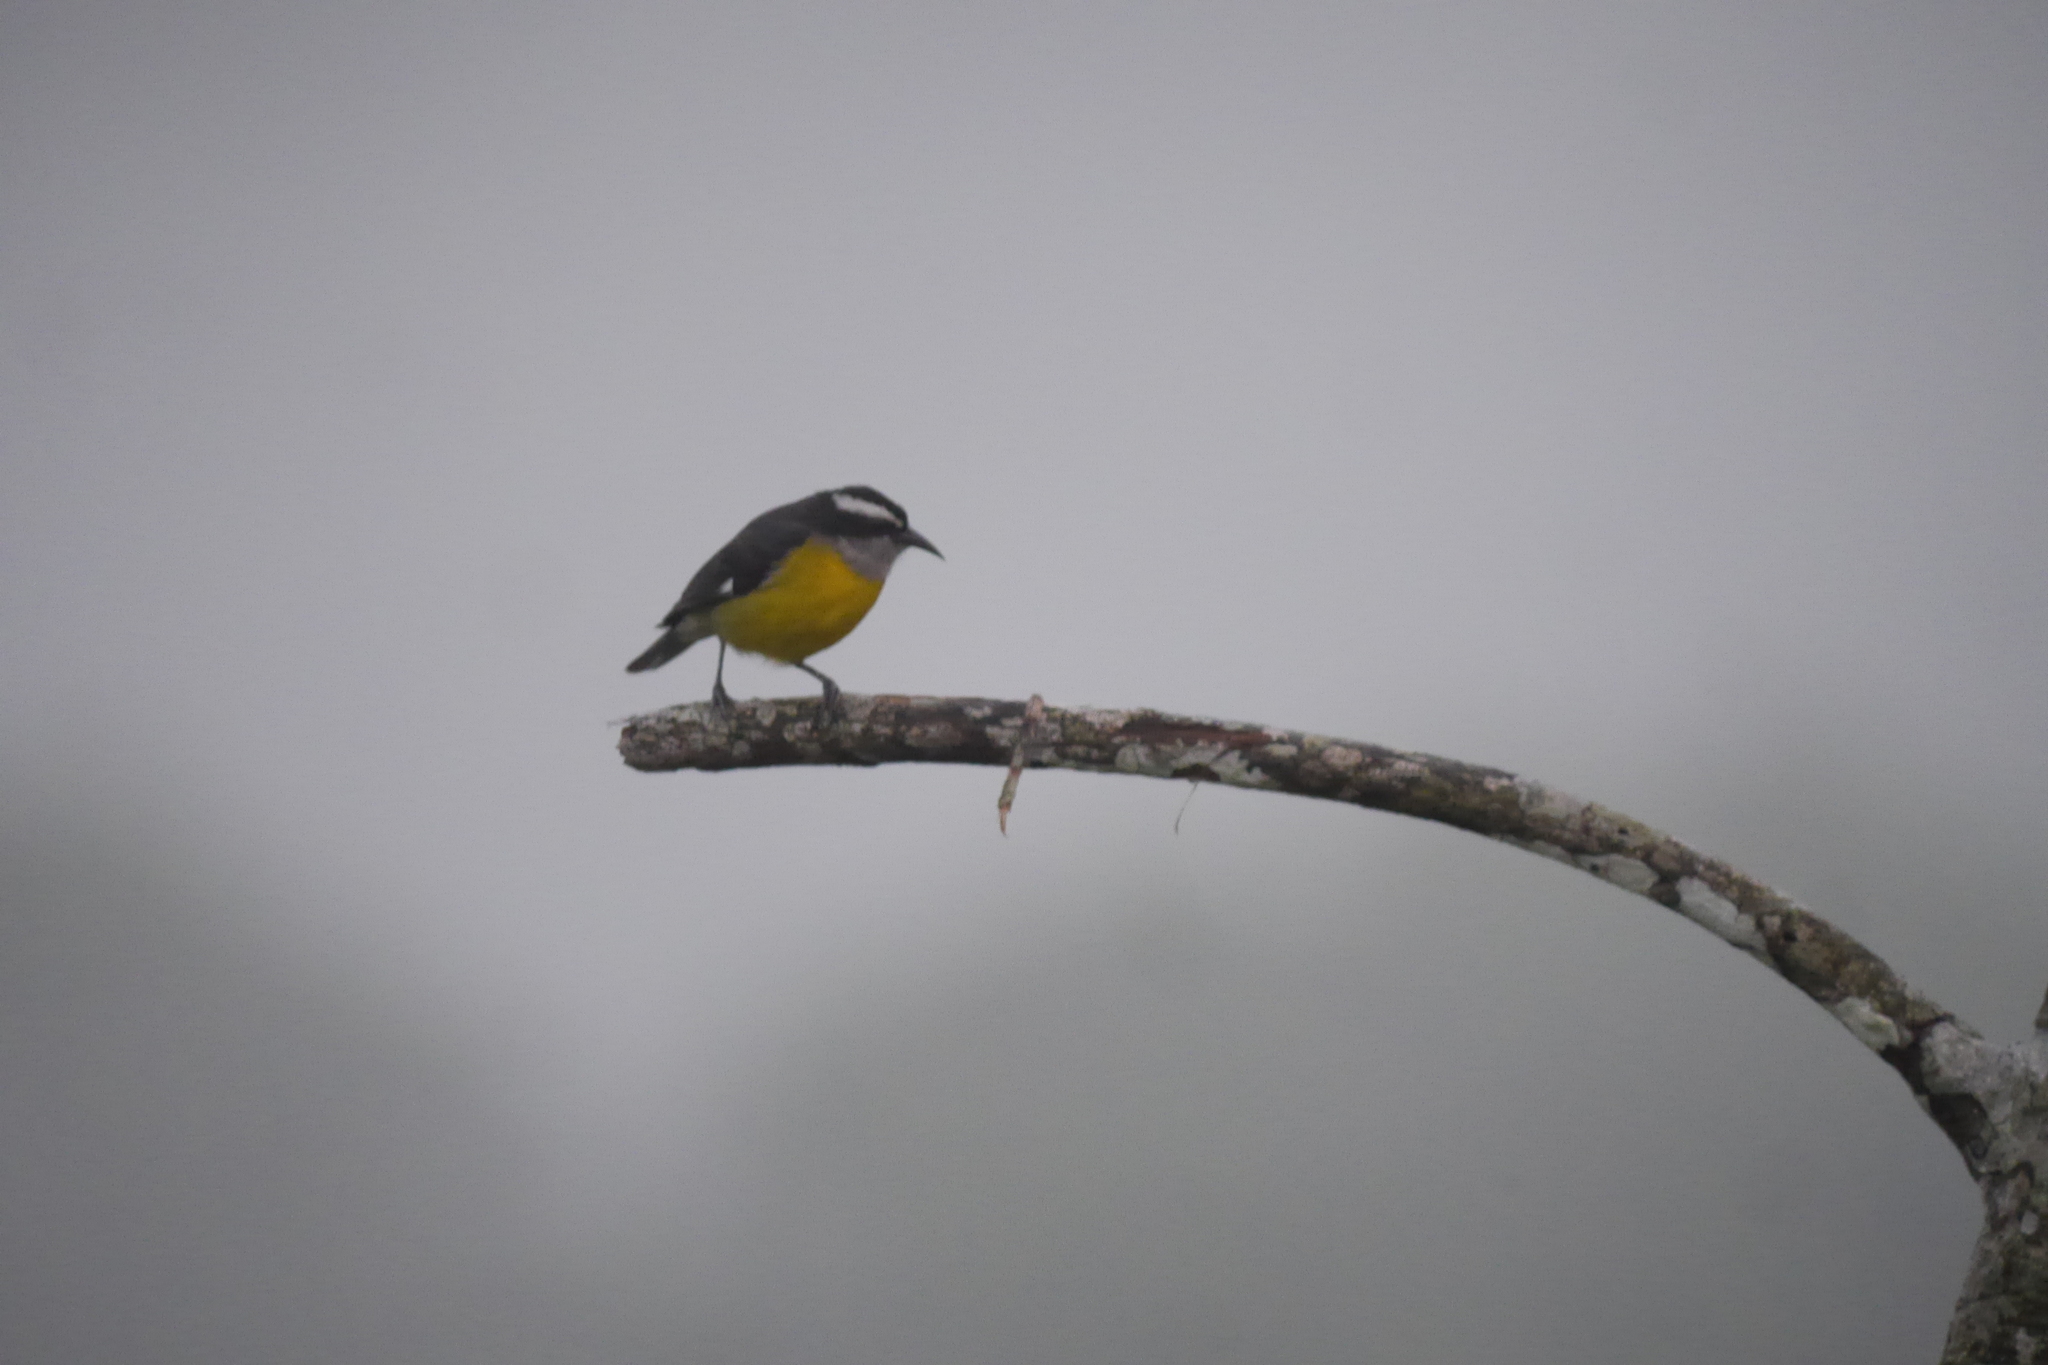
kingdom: Animalia
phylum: Chordata
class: Aves
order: Passeriformes
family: Thraupidae
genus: Coereba
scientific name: Coereba flaveola
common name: Bananaquit
